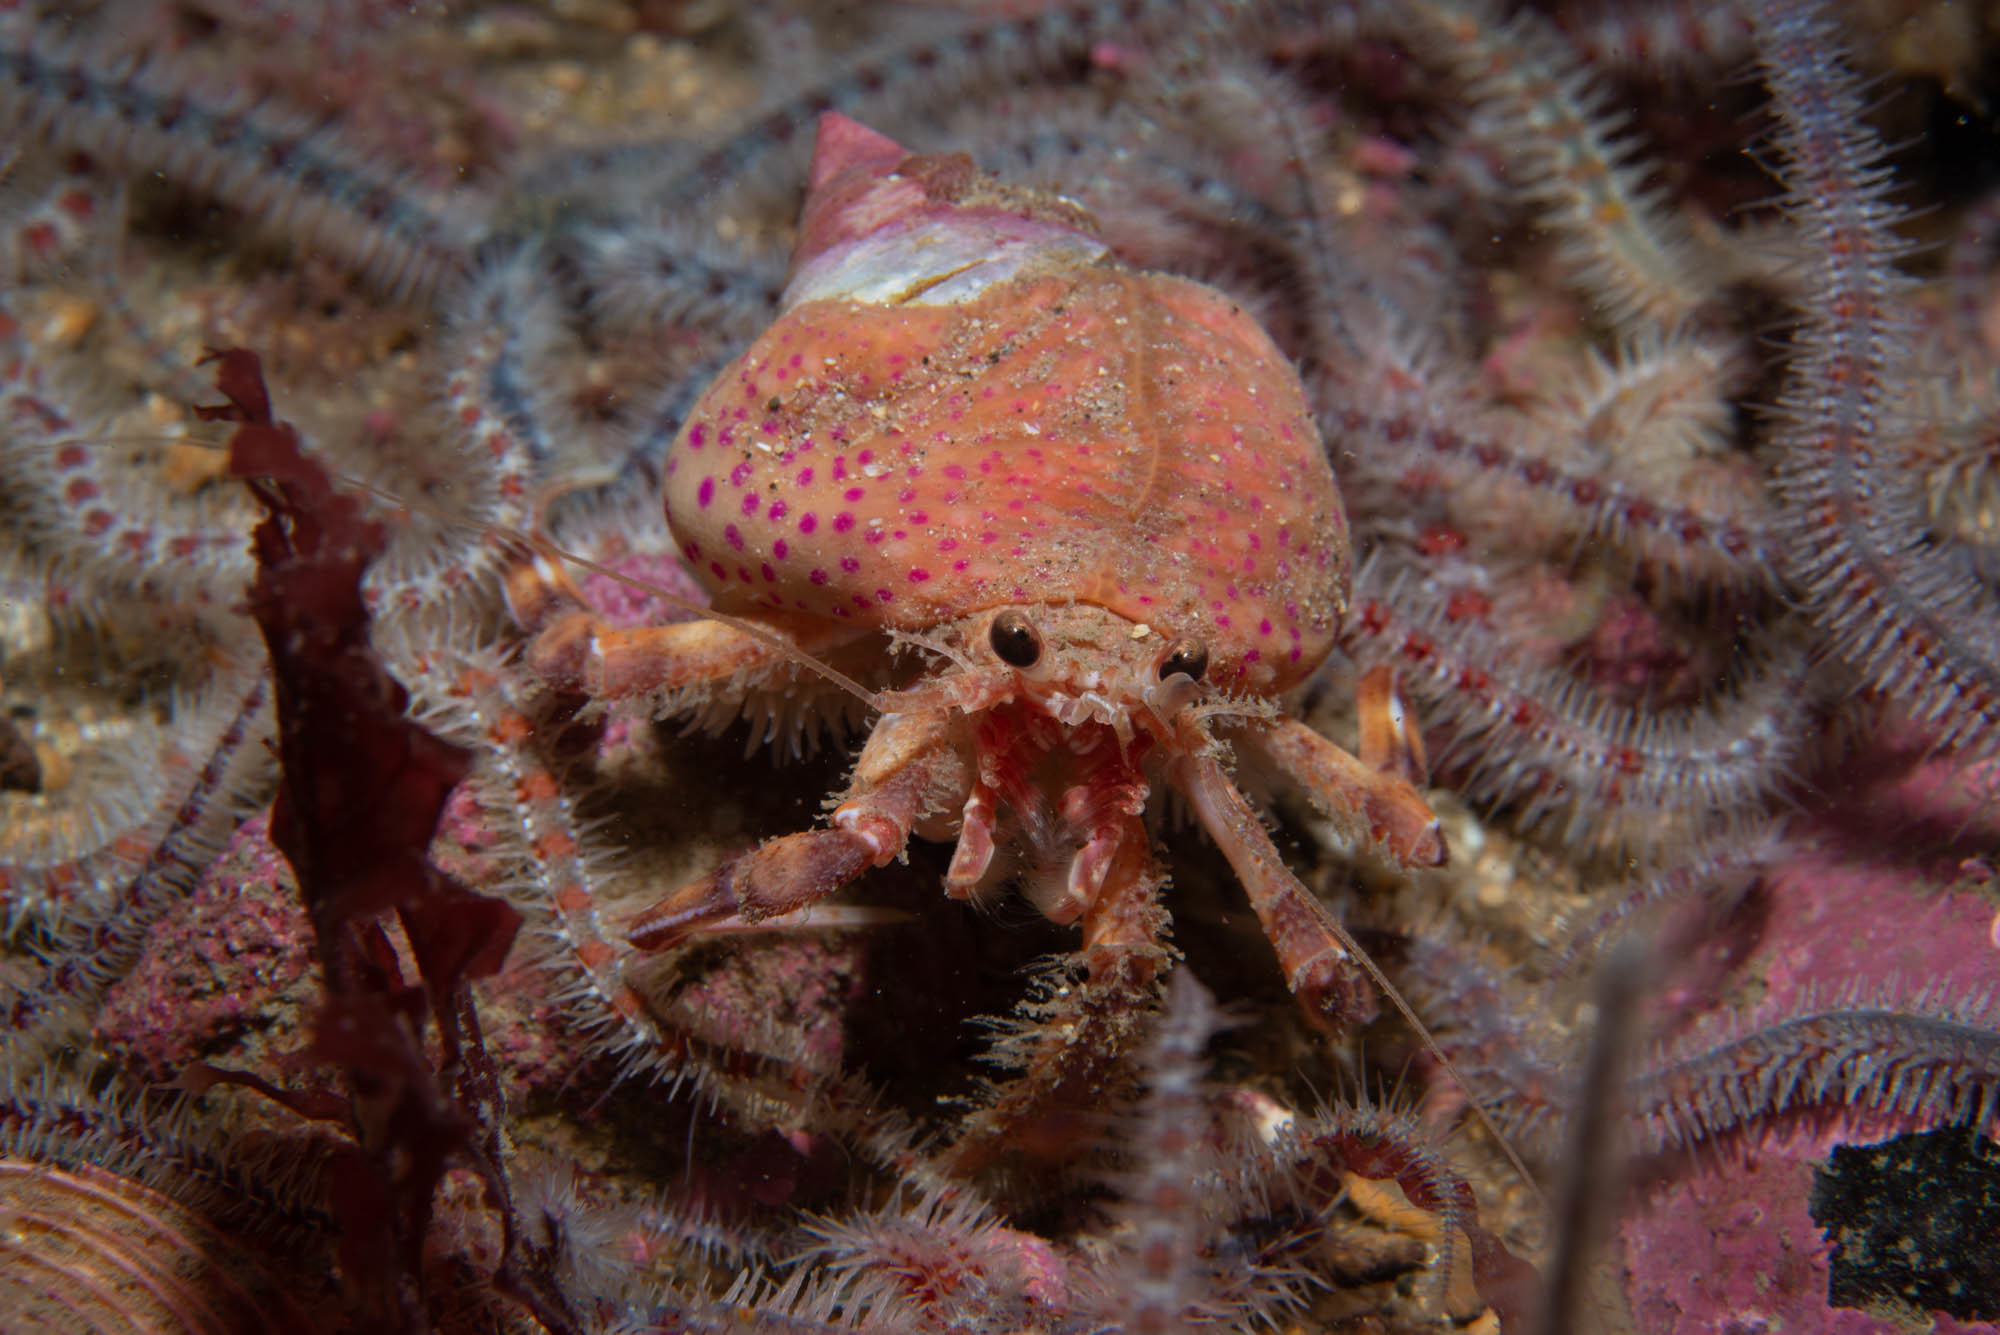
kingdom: Animalia
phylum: Cnidaria
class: Anthozoa
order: Actiniaria
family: Hormathiidae
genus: Calliactis
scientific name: Calliactis palliata
